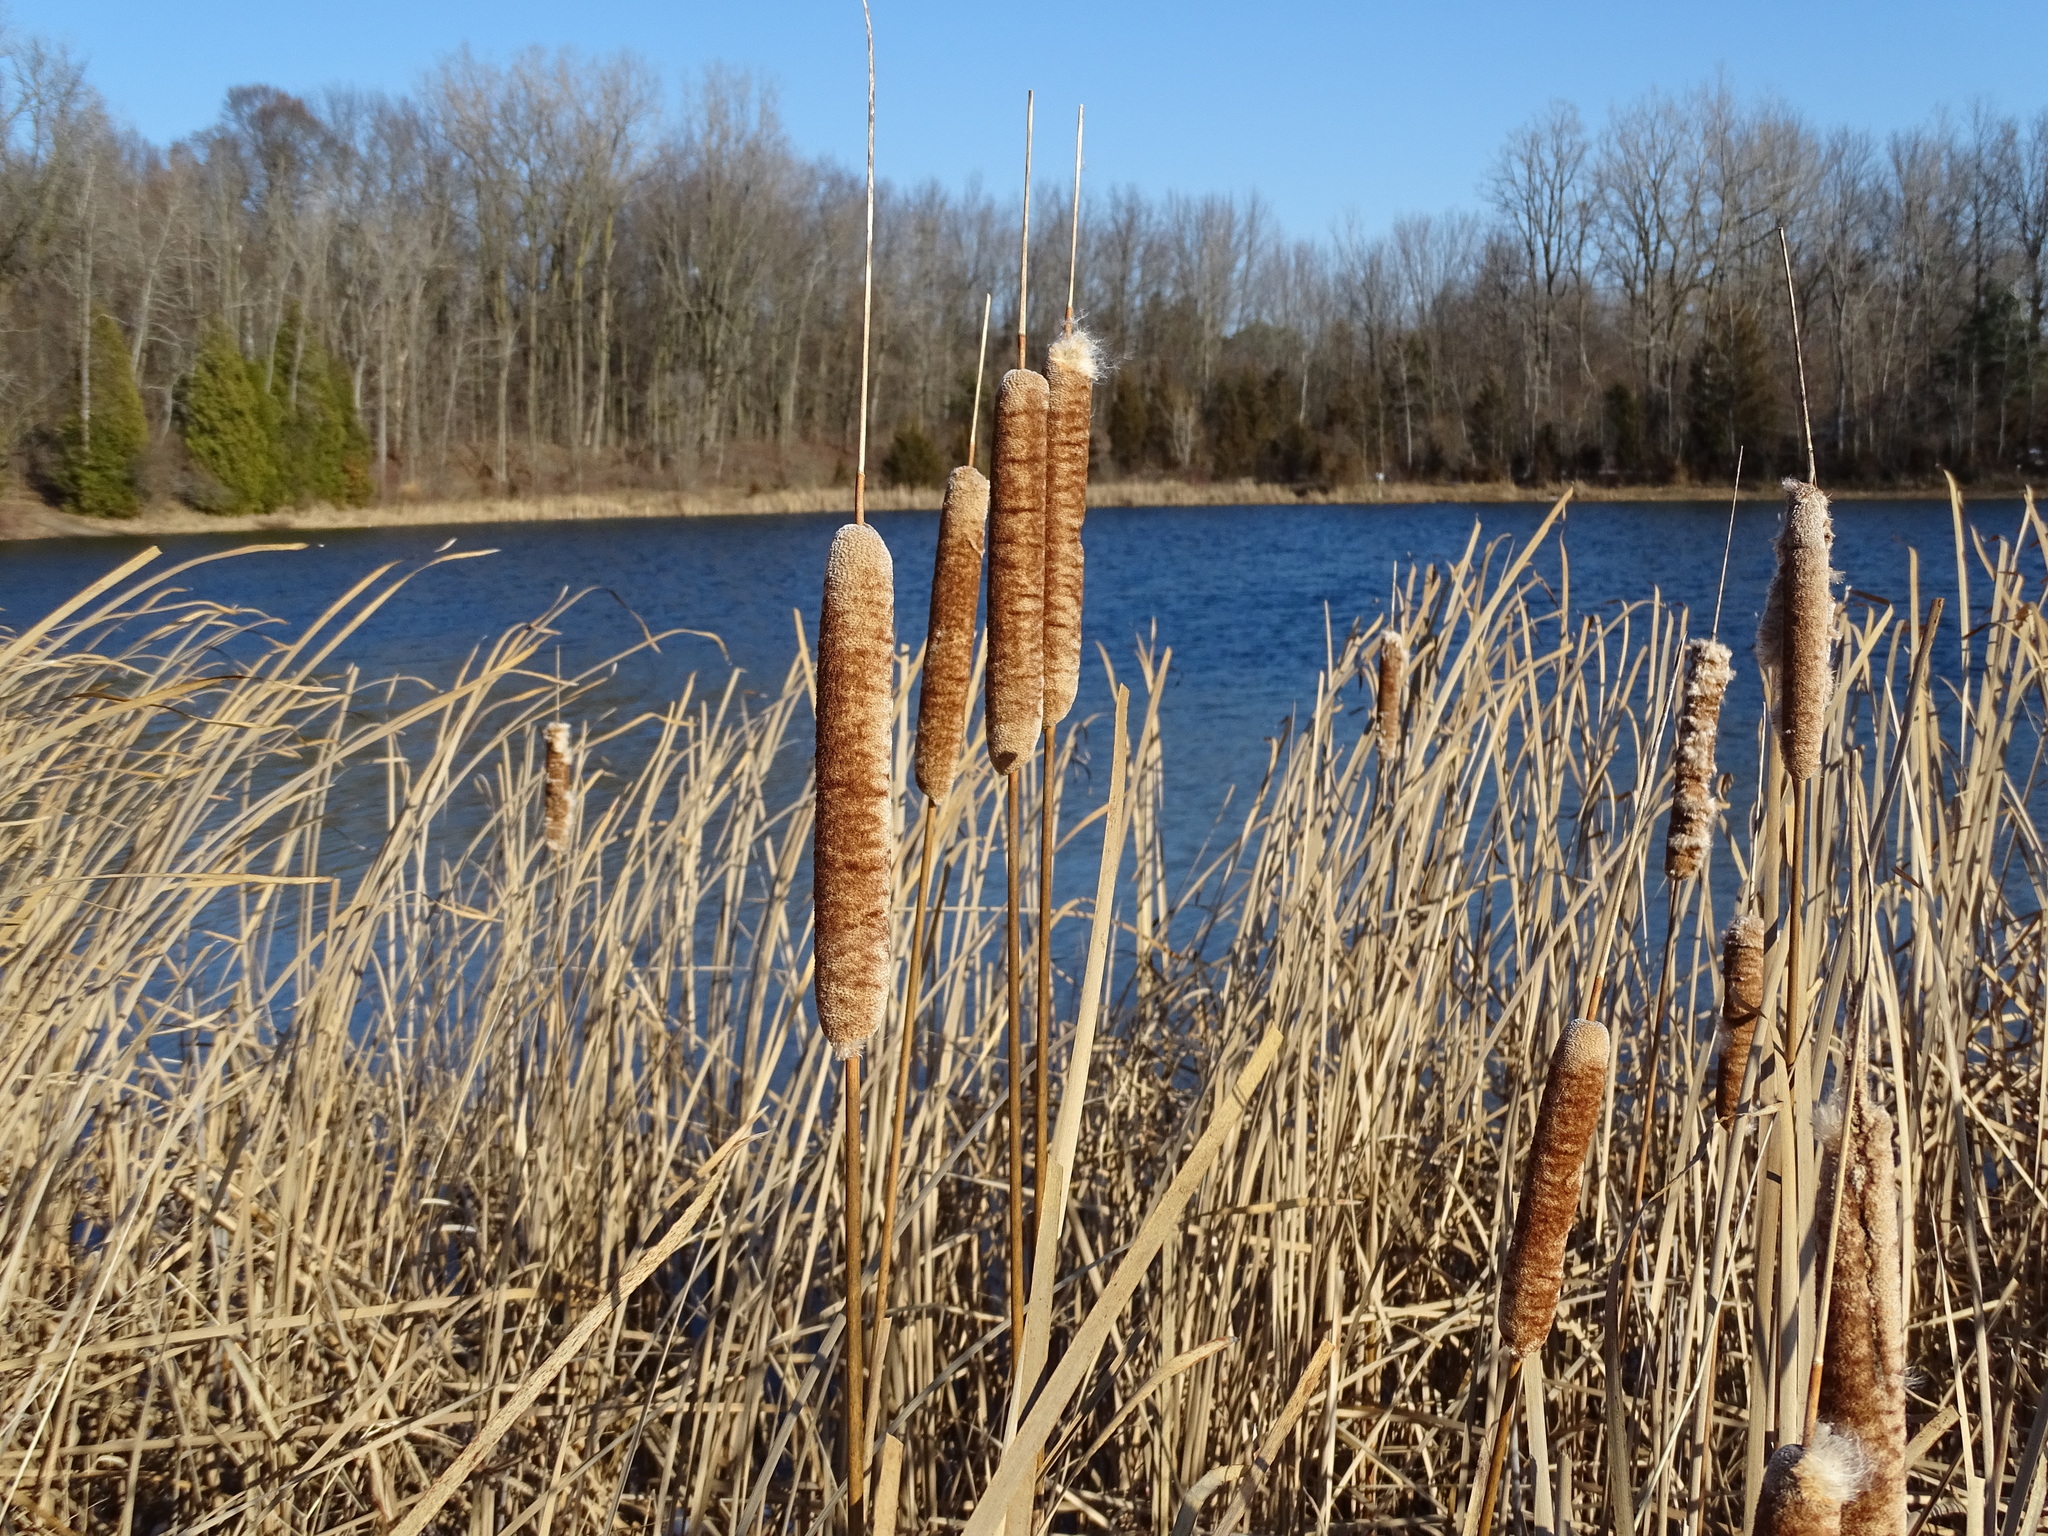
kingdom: Plantae
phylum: Tracheophyta
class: Liliopsida
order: Poales
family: Typhaceae
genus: Typha
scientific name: Typha glauca
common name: Blue cattail
